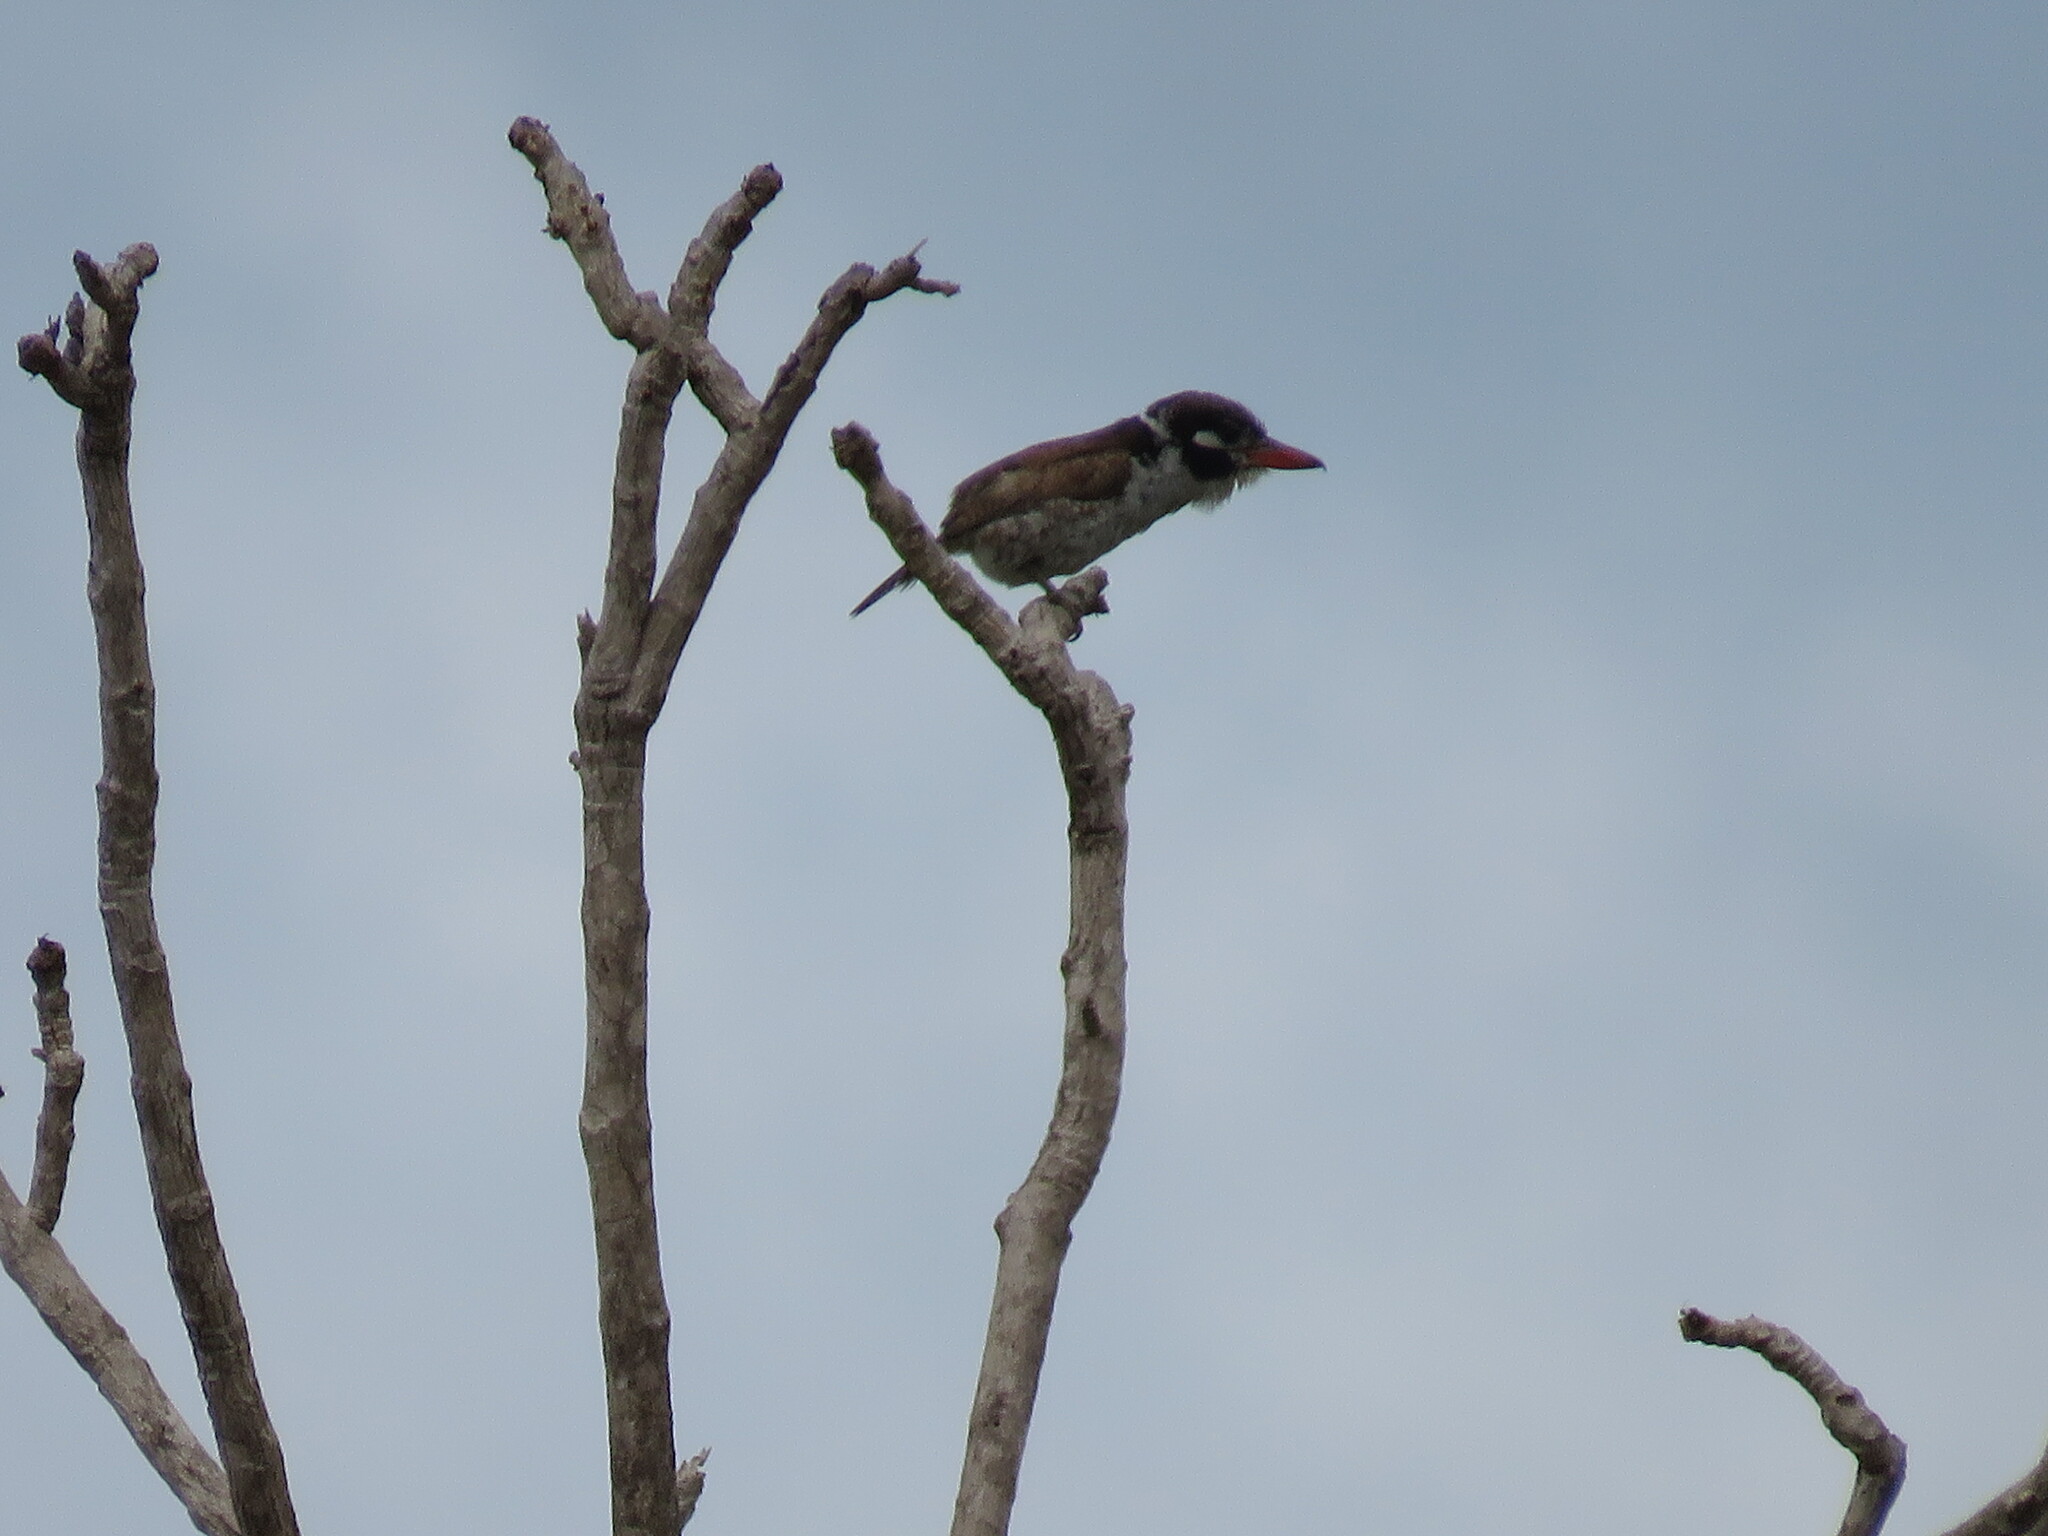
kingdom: Animalia
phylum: Chordata
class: Aves
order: Piciformes
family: Bucconidae
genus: Nystalus
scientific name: Nystalus chacuru
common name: White-eared puffbird
